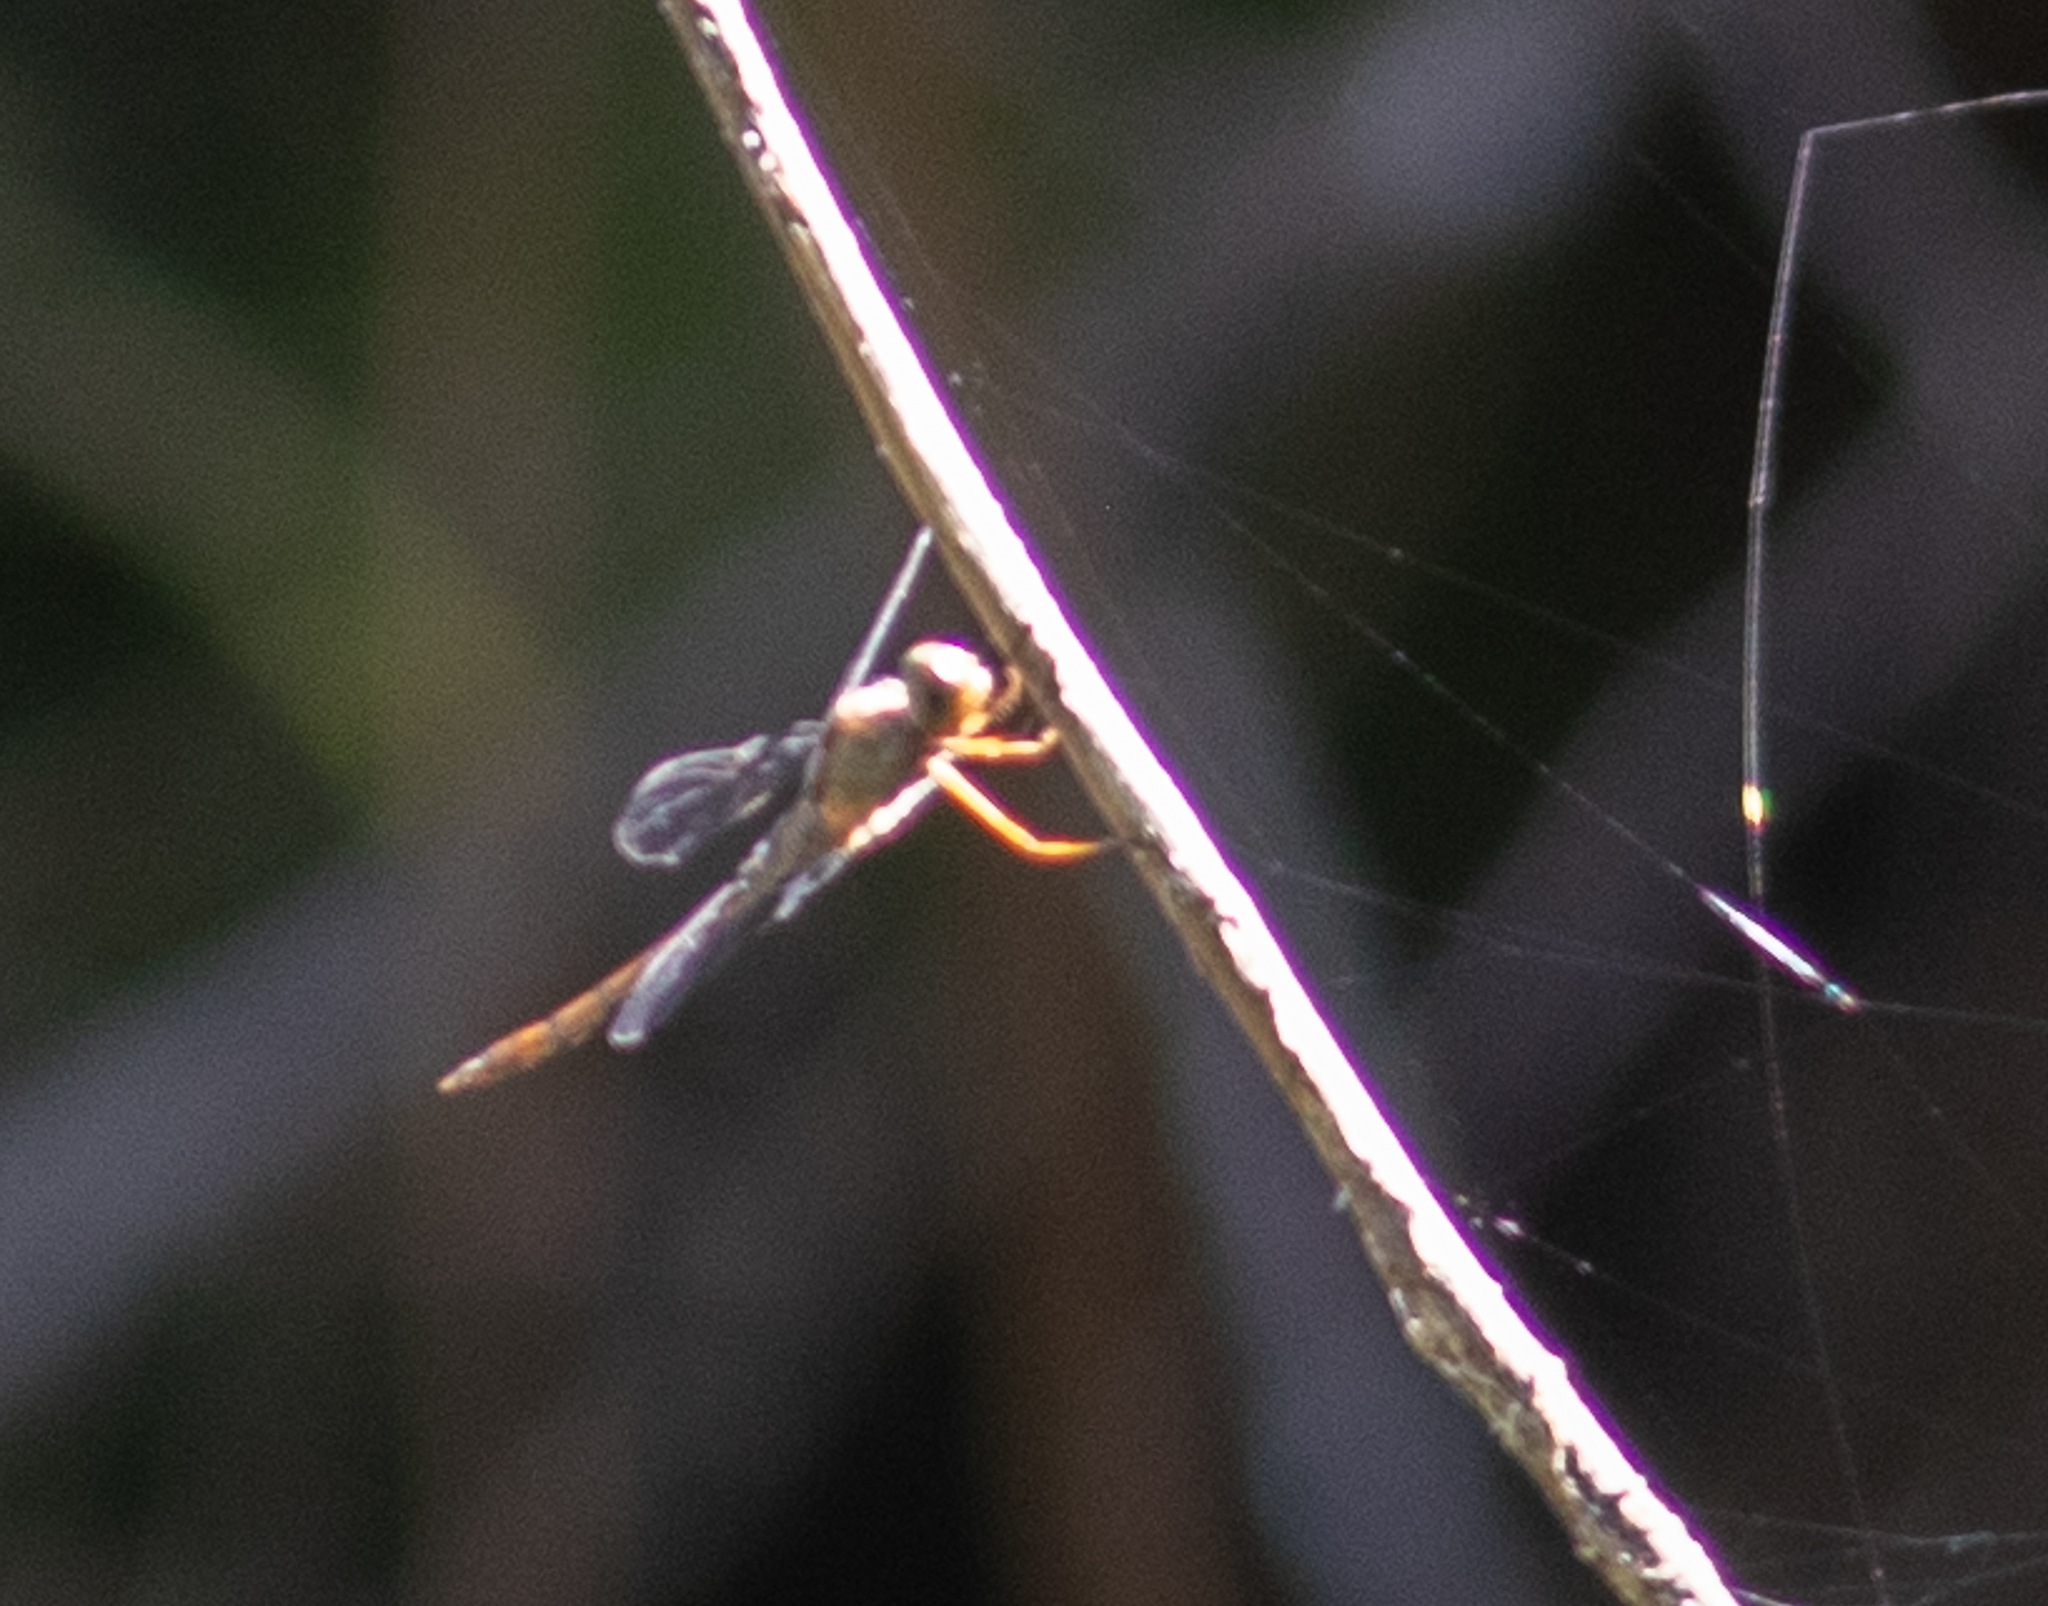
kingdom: Animalia
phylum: Arthropoda
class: Insecta
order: Odonata
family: Libellulidae
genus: Tholymis
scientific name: Tholymis citrina
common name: Evening skimmer
